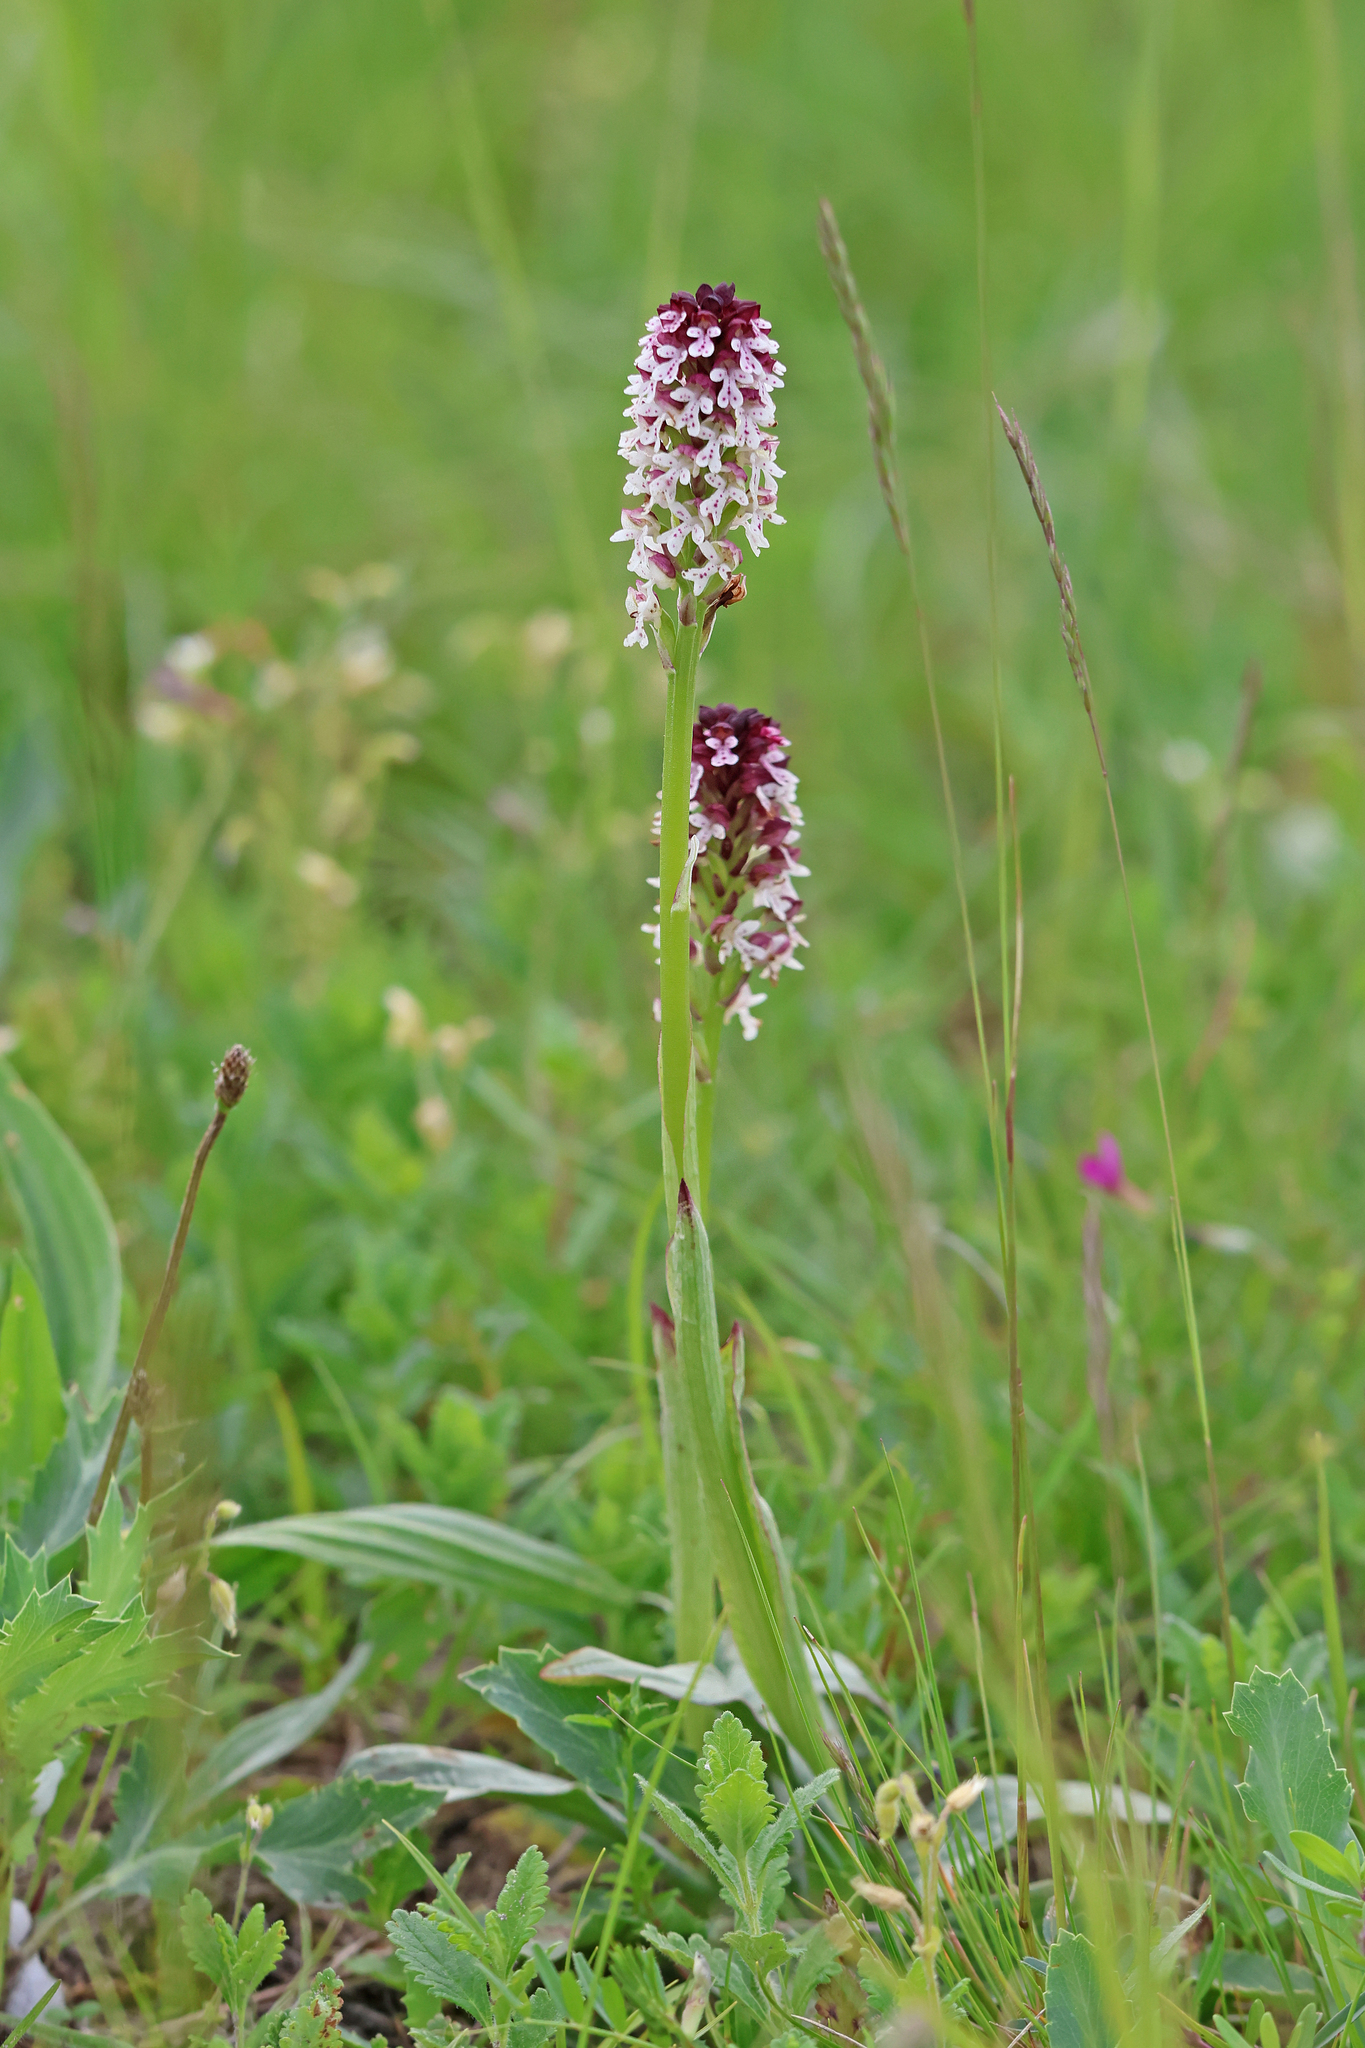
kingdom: Plantae
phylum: Tracheophyta
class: Liliopsida
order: Asparagales
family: Orchidaceae
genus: Neotinea
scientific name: Neotinea ustulata
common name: Burnt orchid
